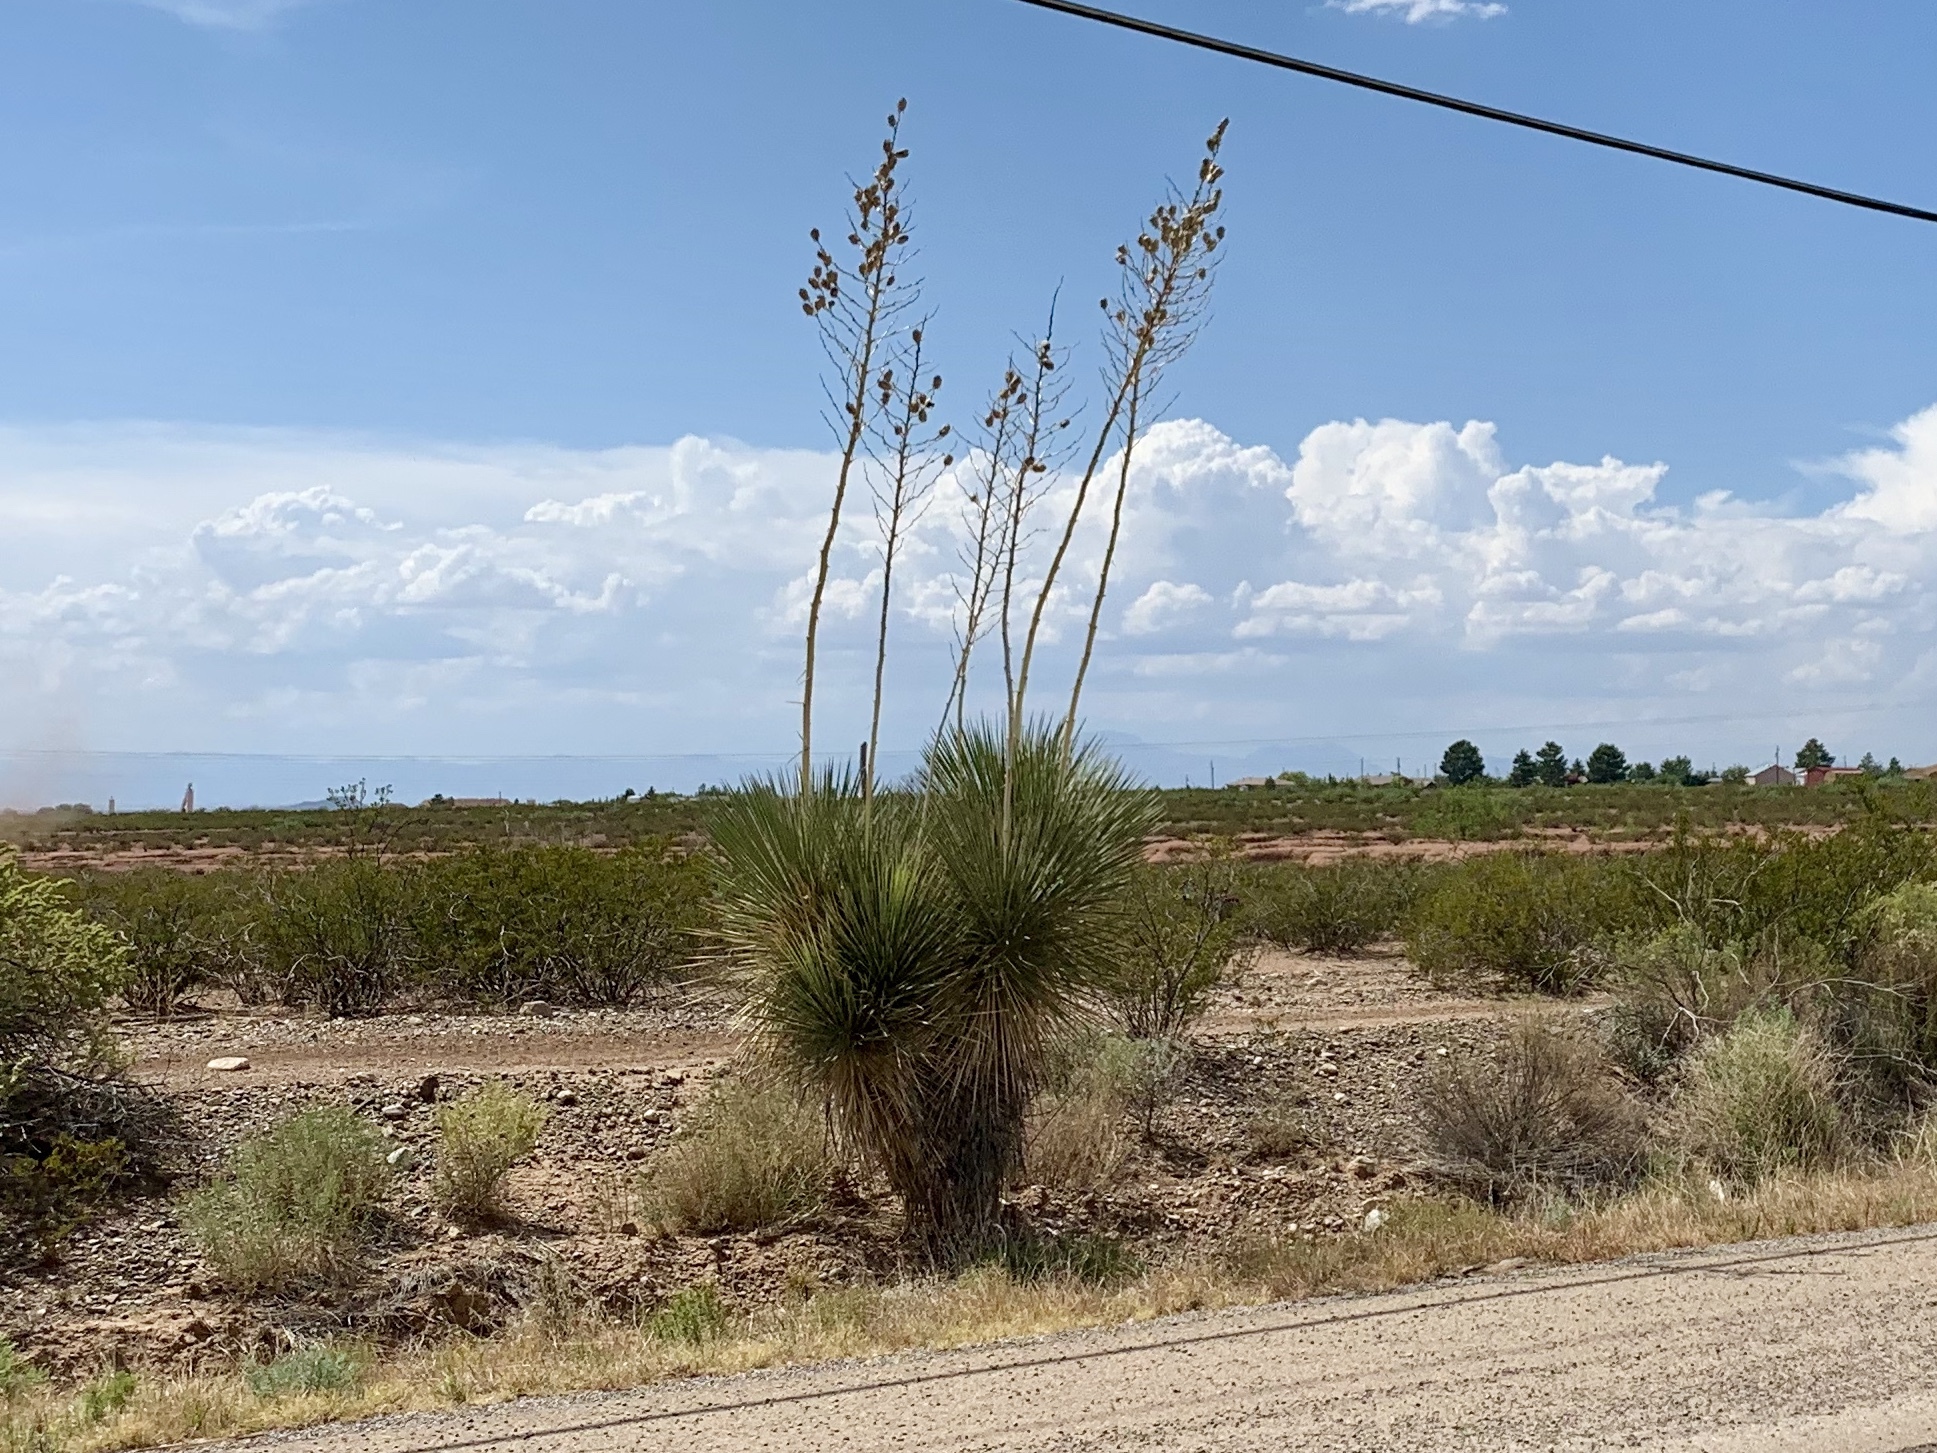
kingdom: Plantae
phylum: Tracheophyta
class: Liliopsida
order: Asparagales
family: Asparagaceae
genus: Yucca
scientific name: Yucca elata
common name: Palmella
